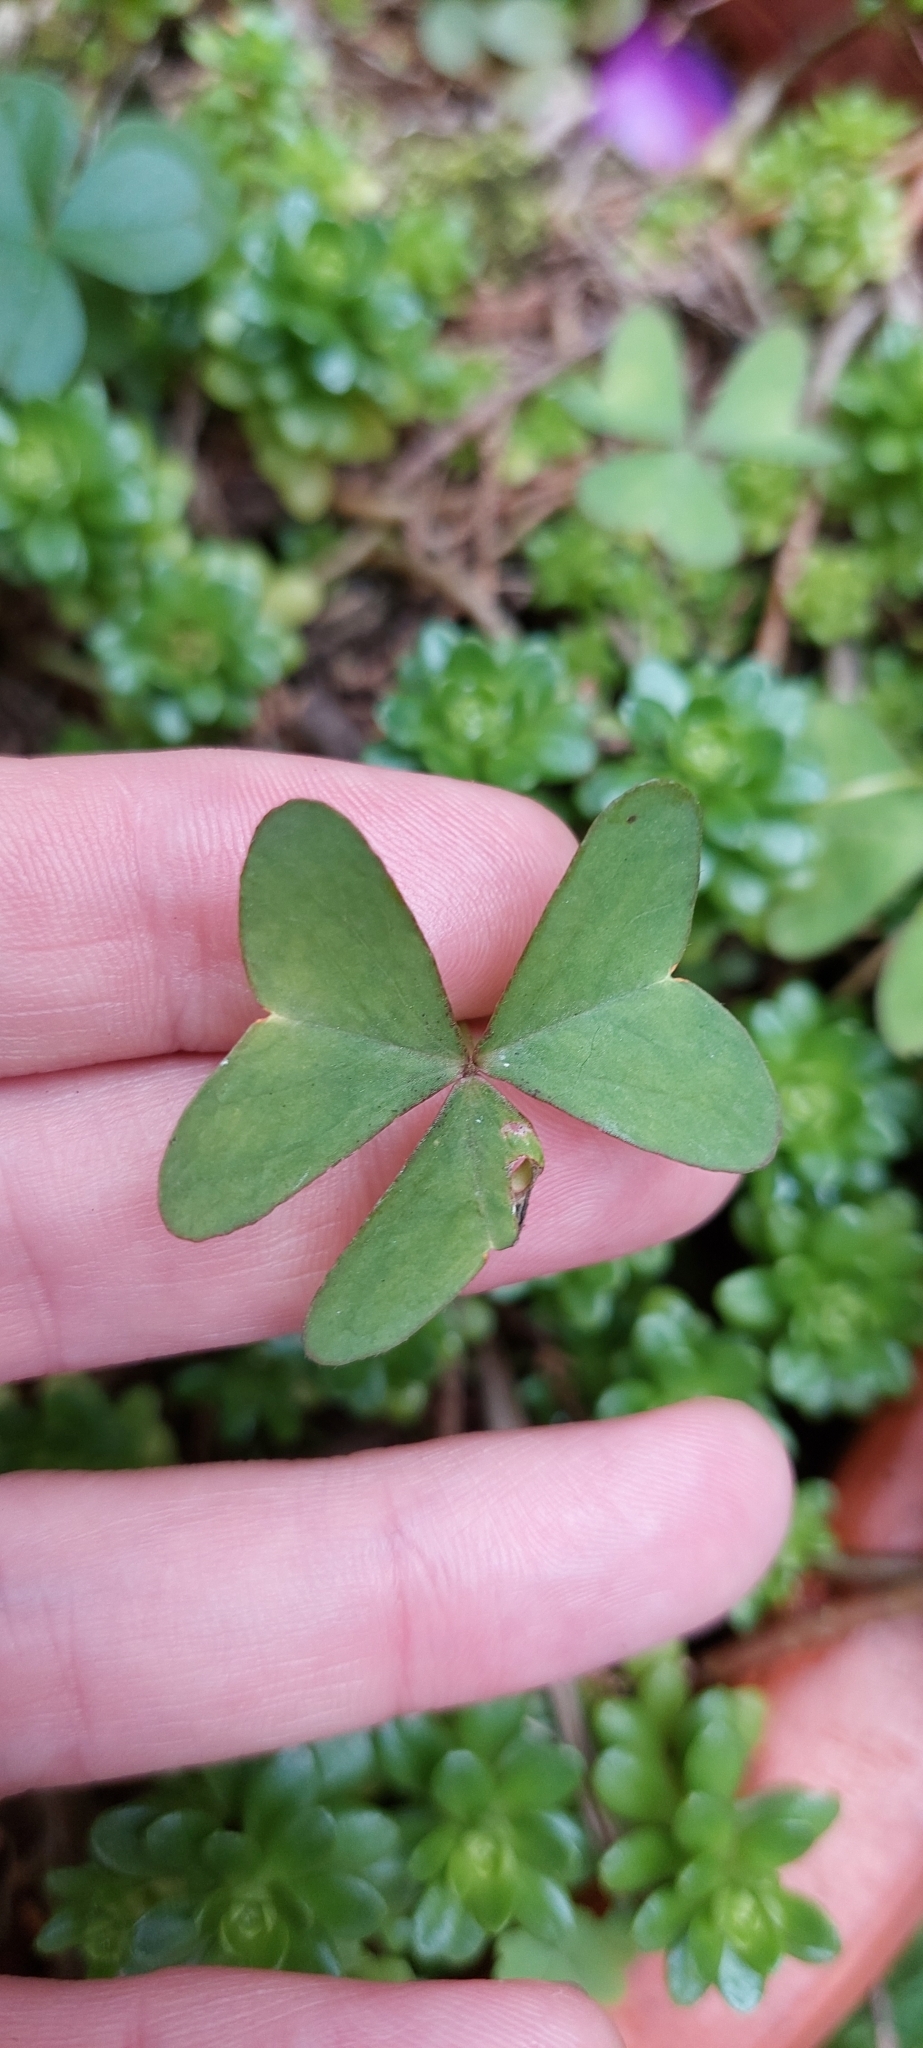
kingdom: Plantae
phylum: Tracheophyta
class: Magnoliopsida
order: Oxalidales
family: Oxalidaceae
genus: Oxalis
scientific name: Oxalis latifolia
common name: Garden pink-sorrel
